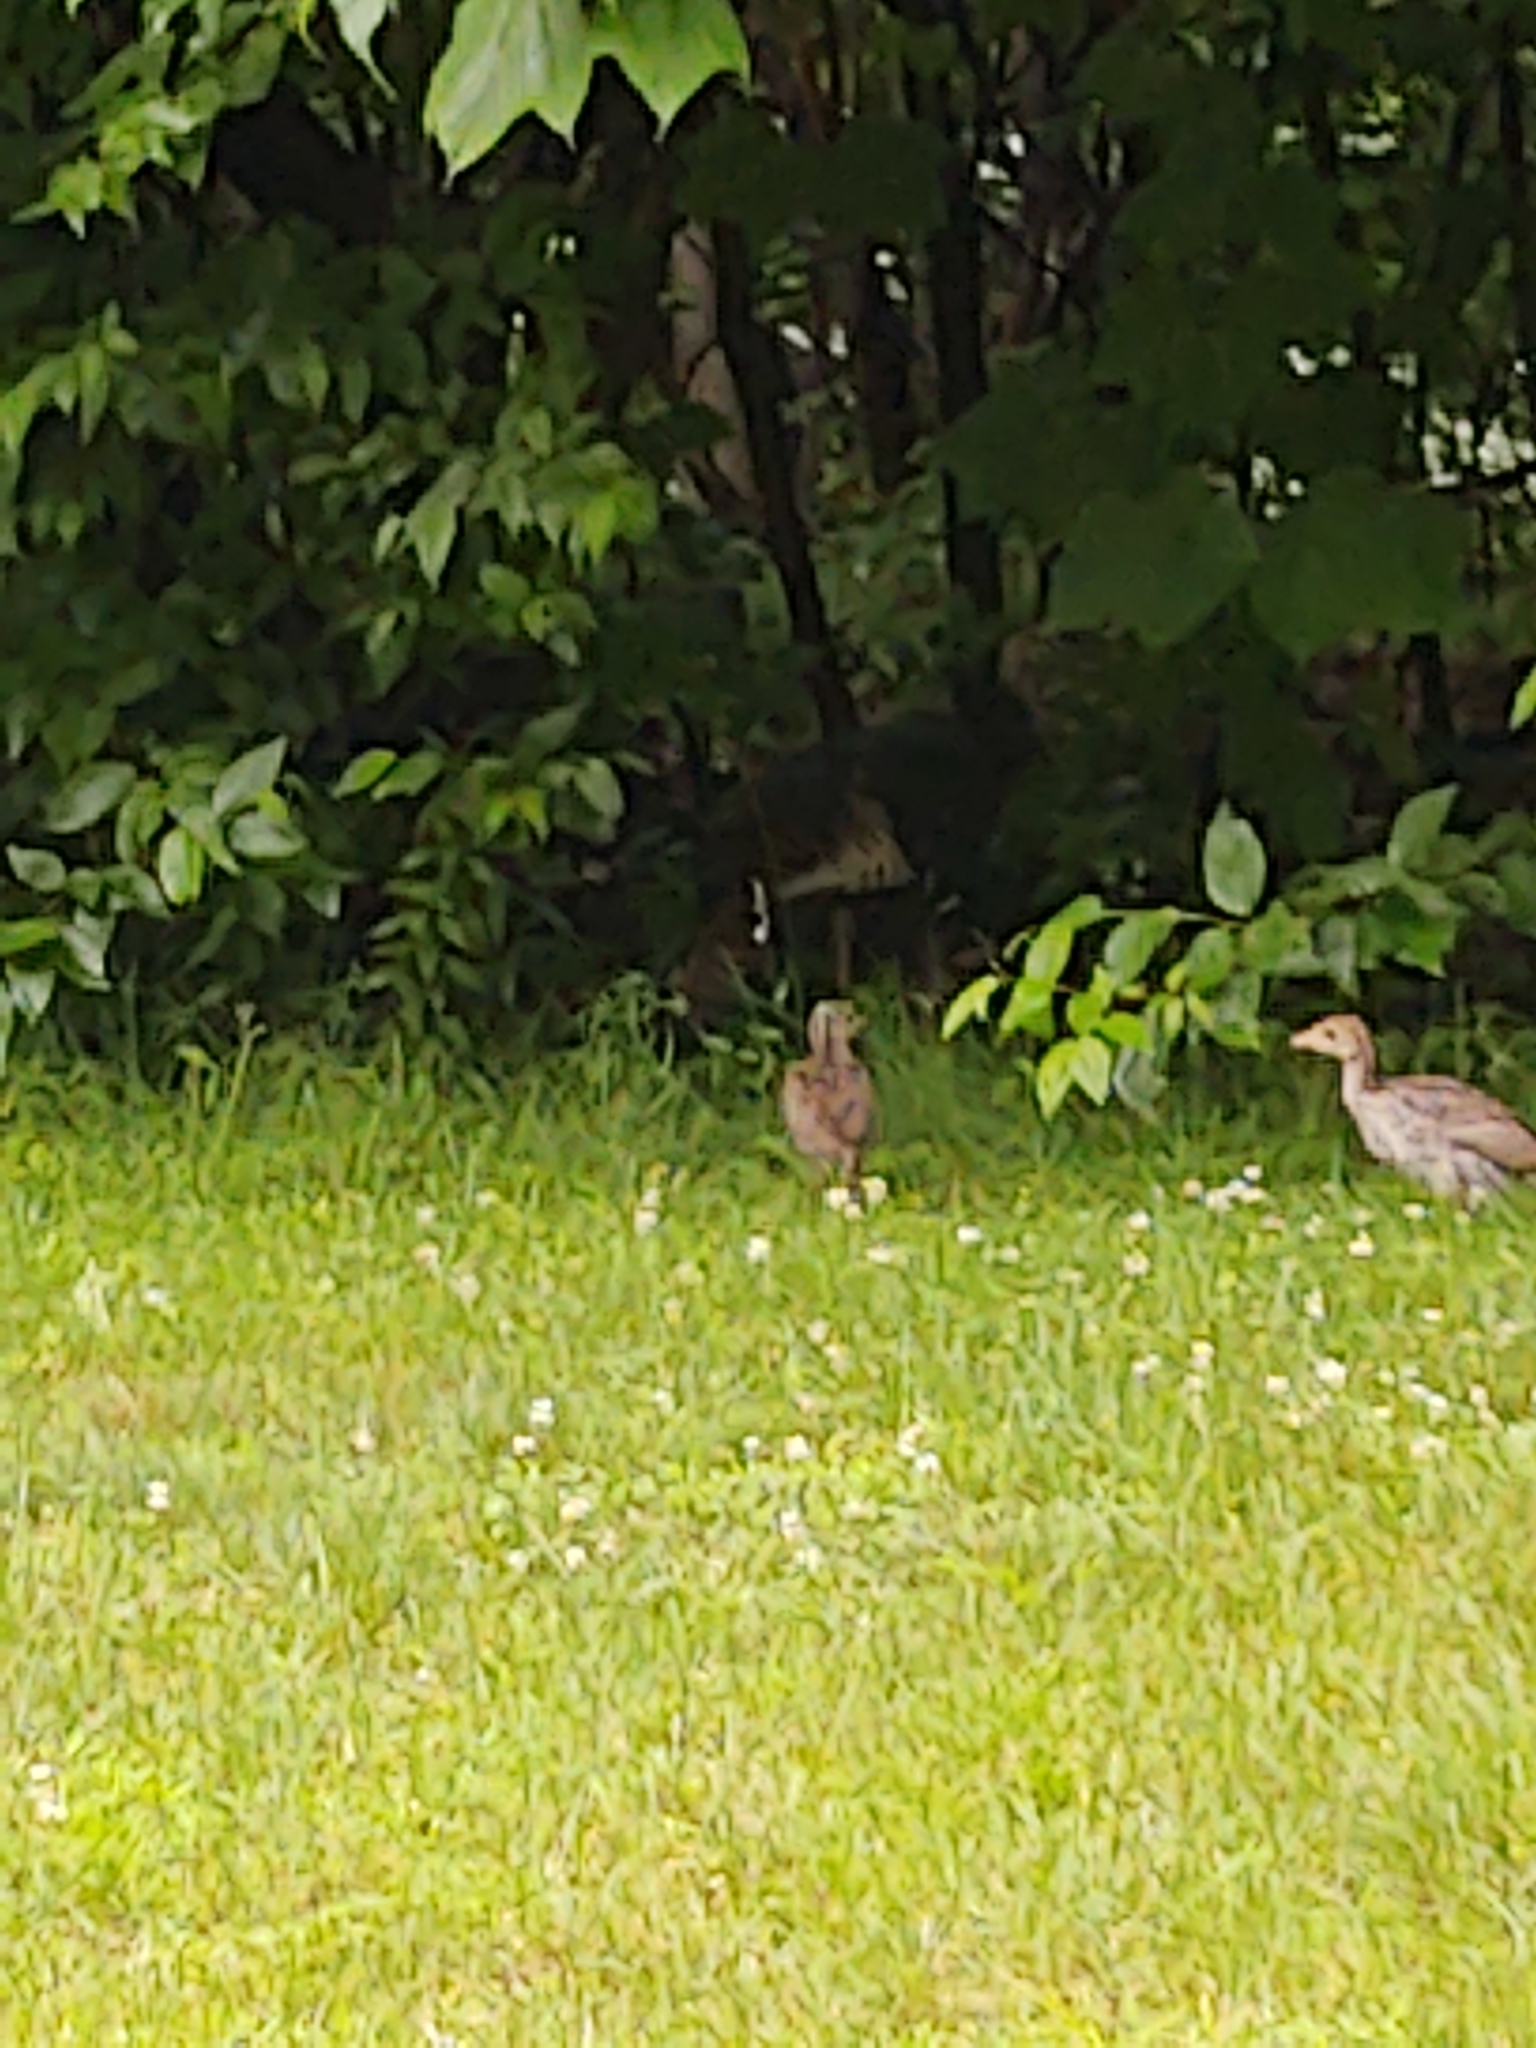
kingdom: Animalia
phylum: Chordata
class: Aves
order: Galliformes
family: Phasianidae
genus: Meleagris
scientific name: Meleagris gallopavo
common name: Wild turkey
